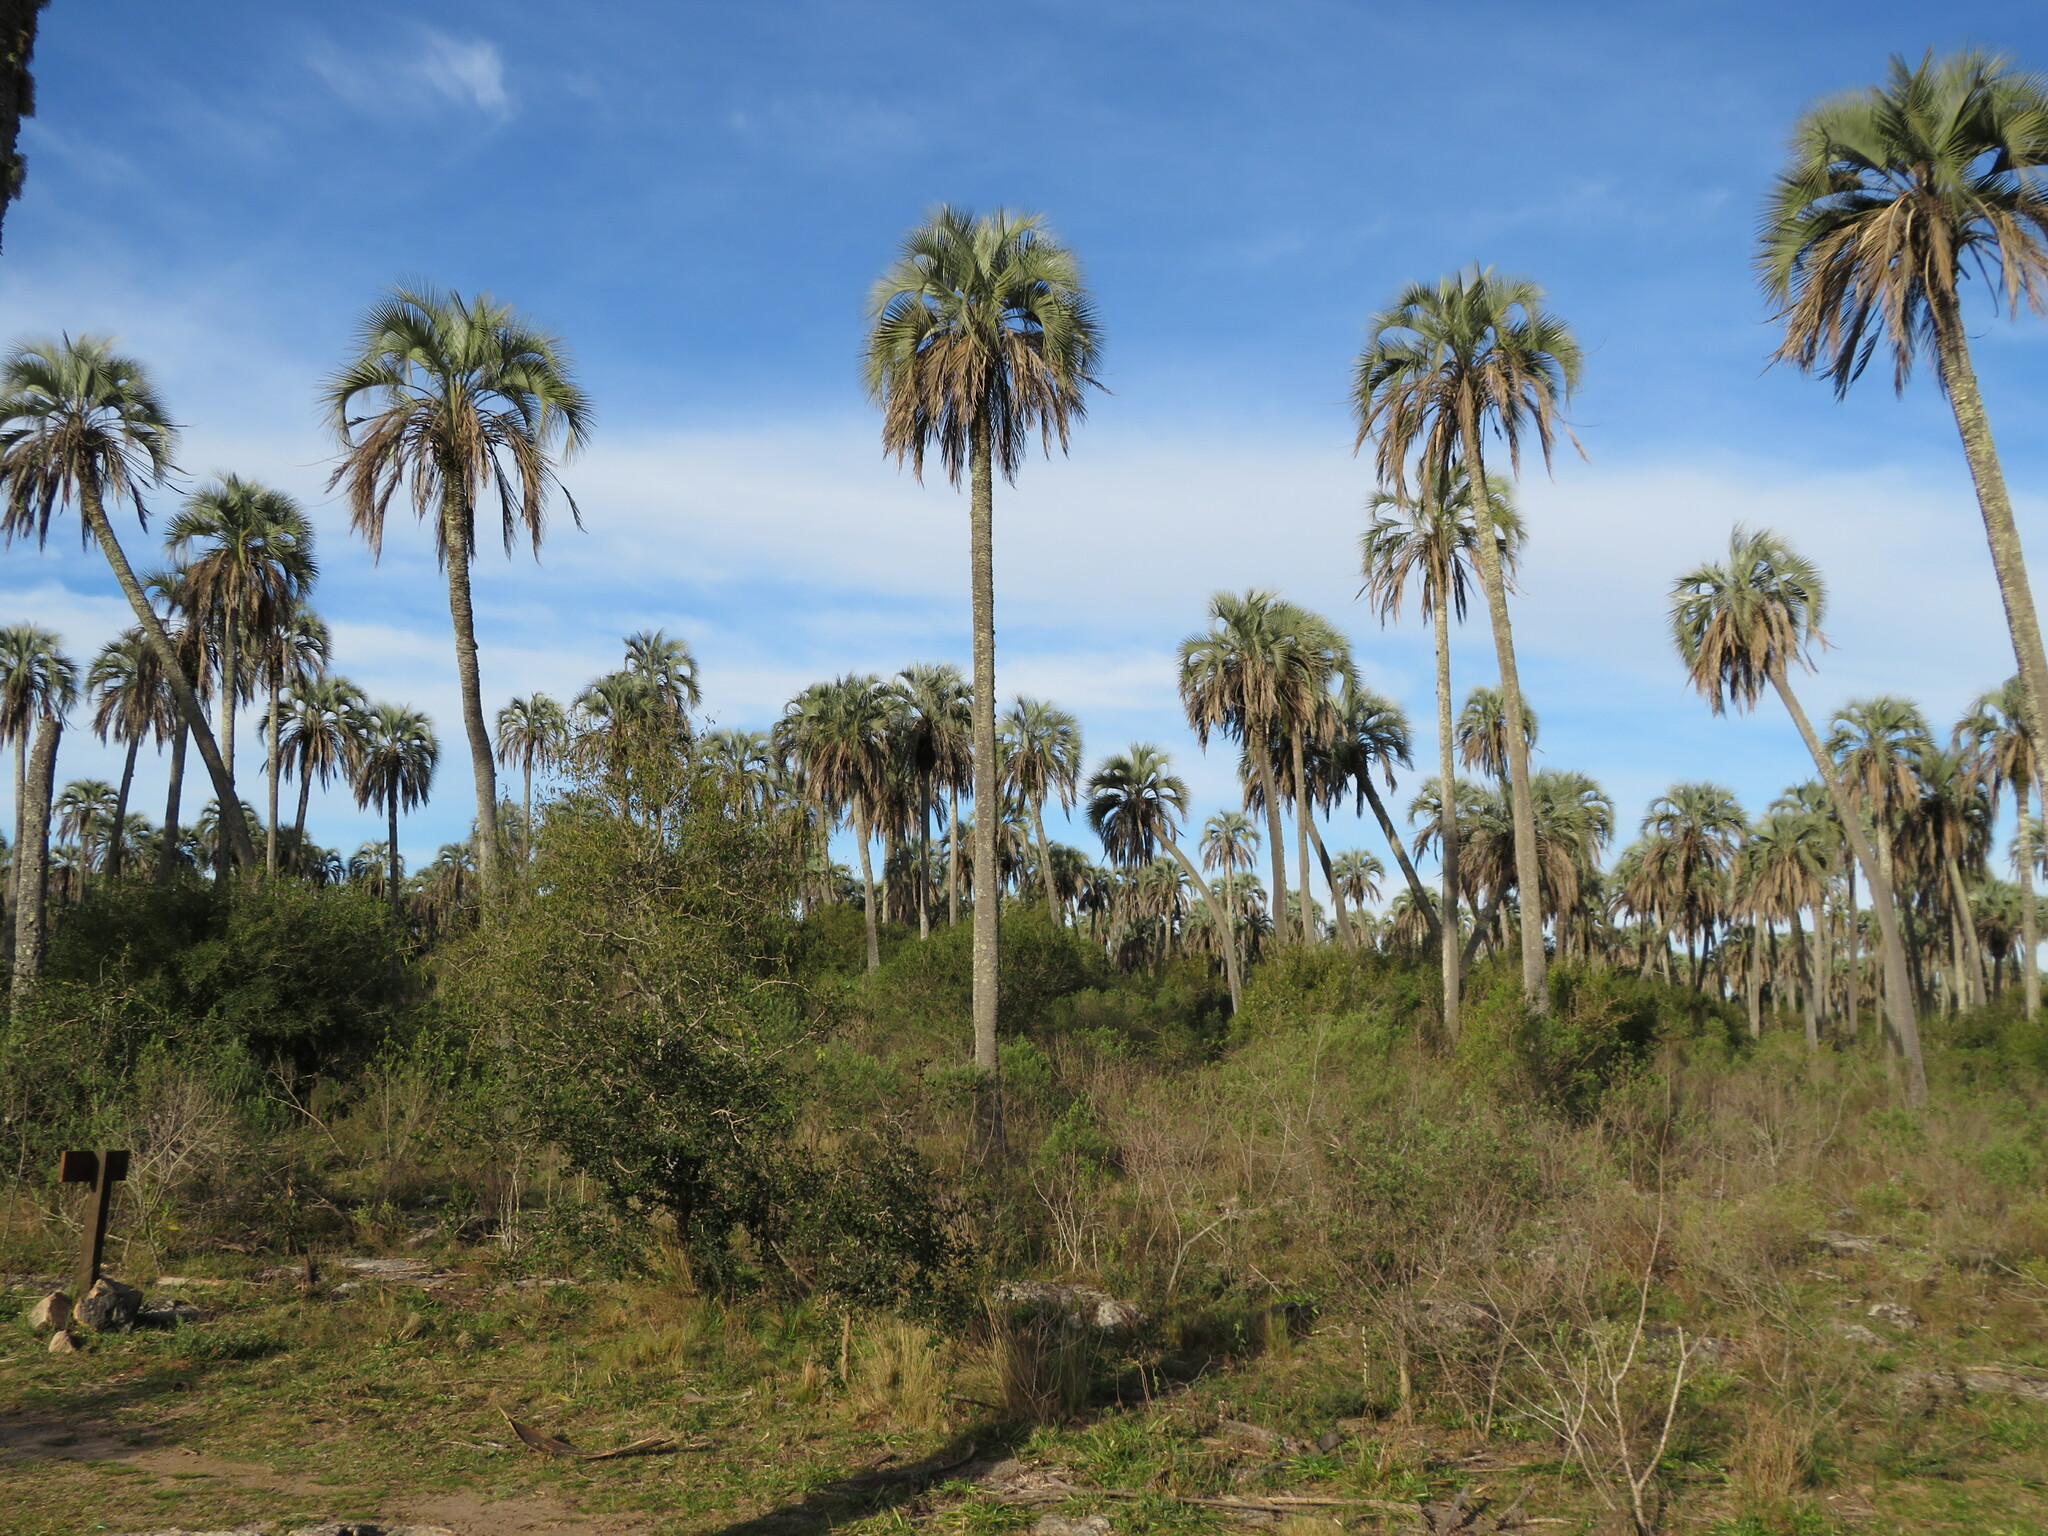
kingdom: Plantae
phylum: Tracheophyta
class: Liliopsida
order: Arecales
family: Arecaceae
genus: Butia
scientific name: Butia yatay
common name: Yatay palm
